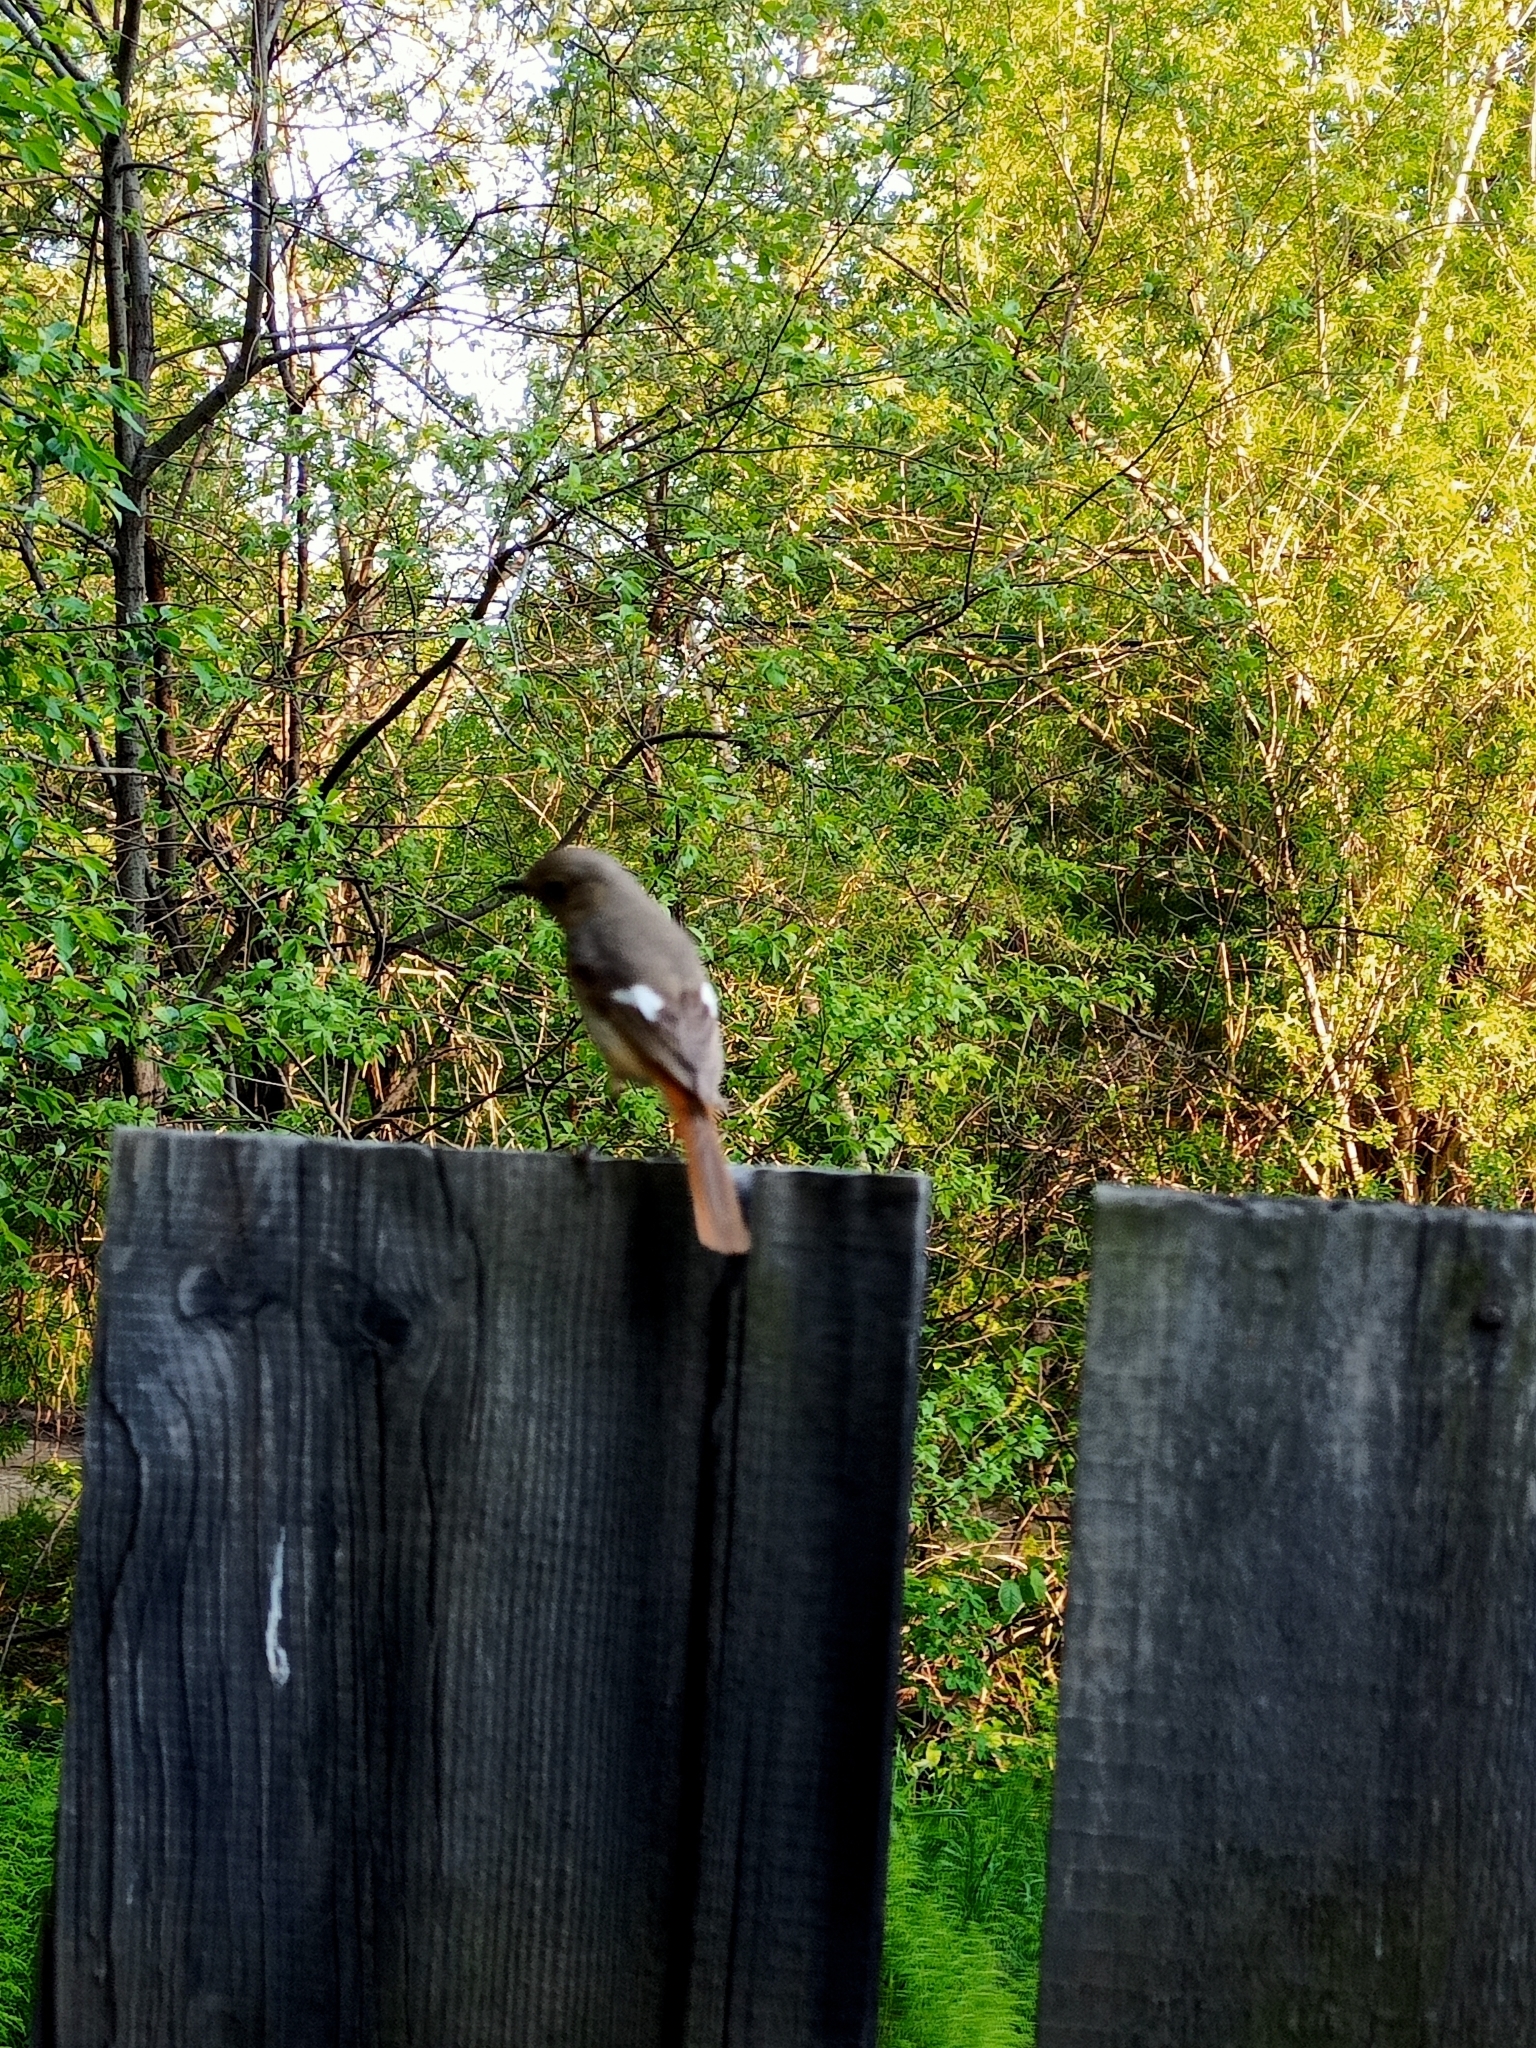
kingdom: Animalia
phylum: Chordata
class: Aves
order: Passeriformes
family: Muscicapidae
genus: Phoenicurus
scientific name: Phoenicurus auroreus
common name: Daurian redstart
